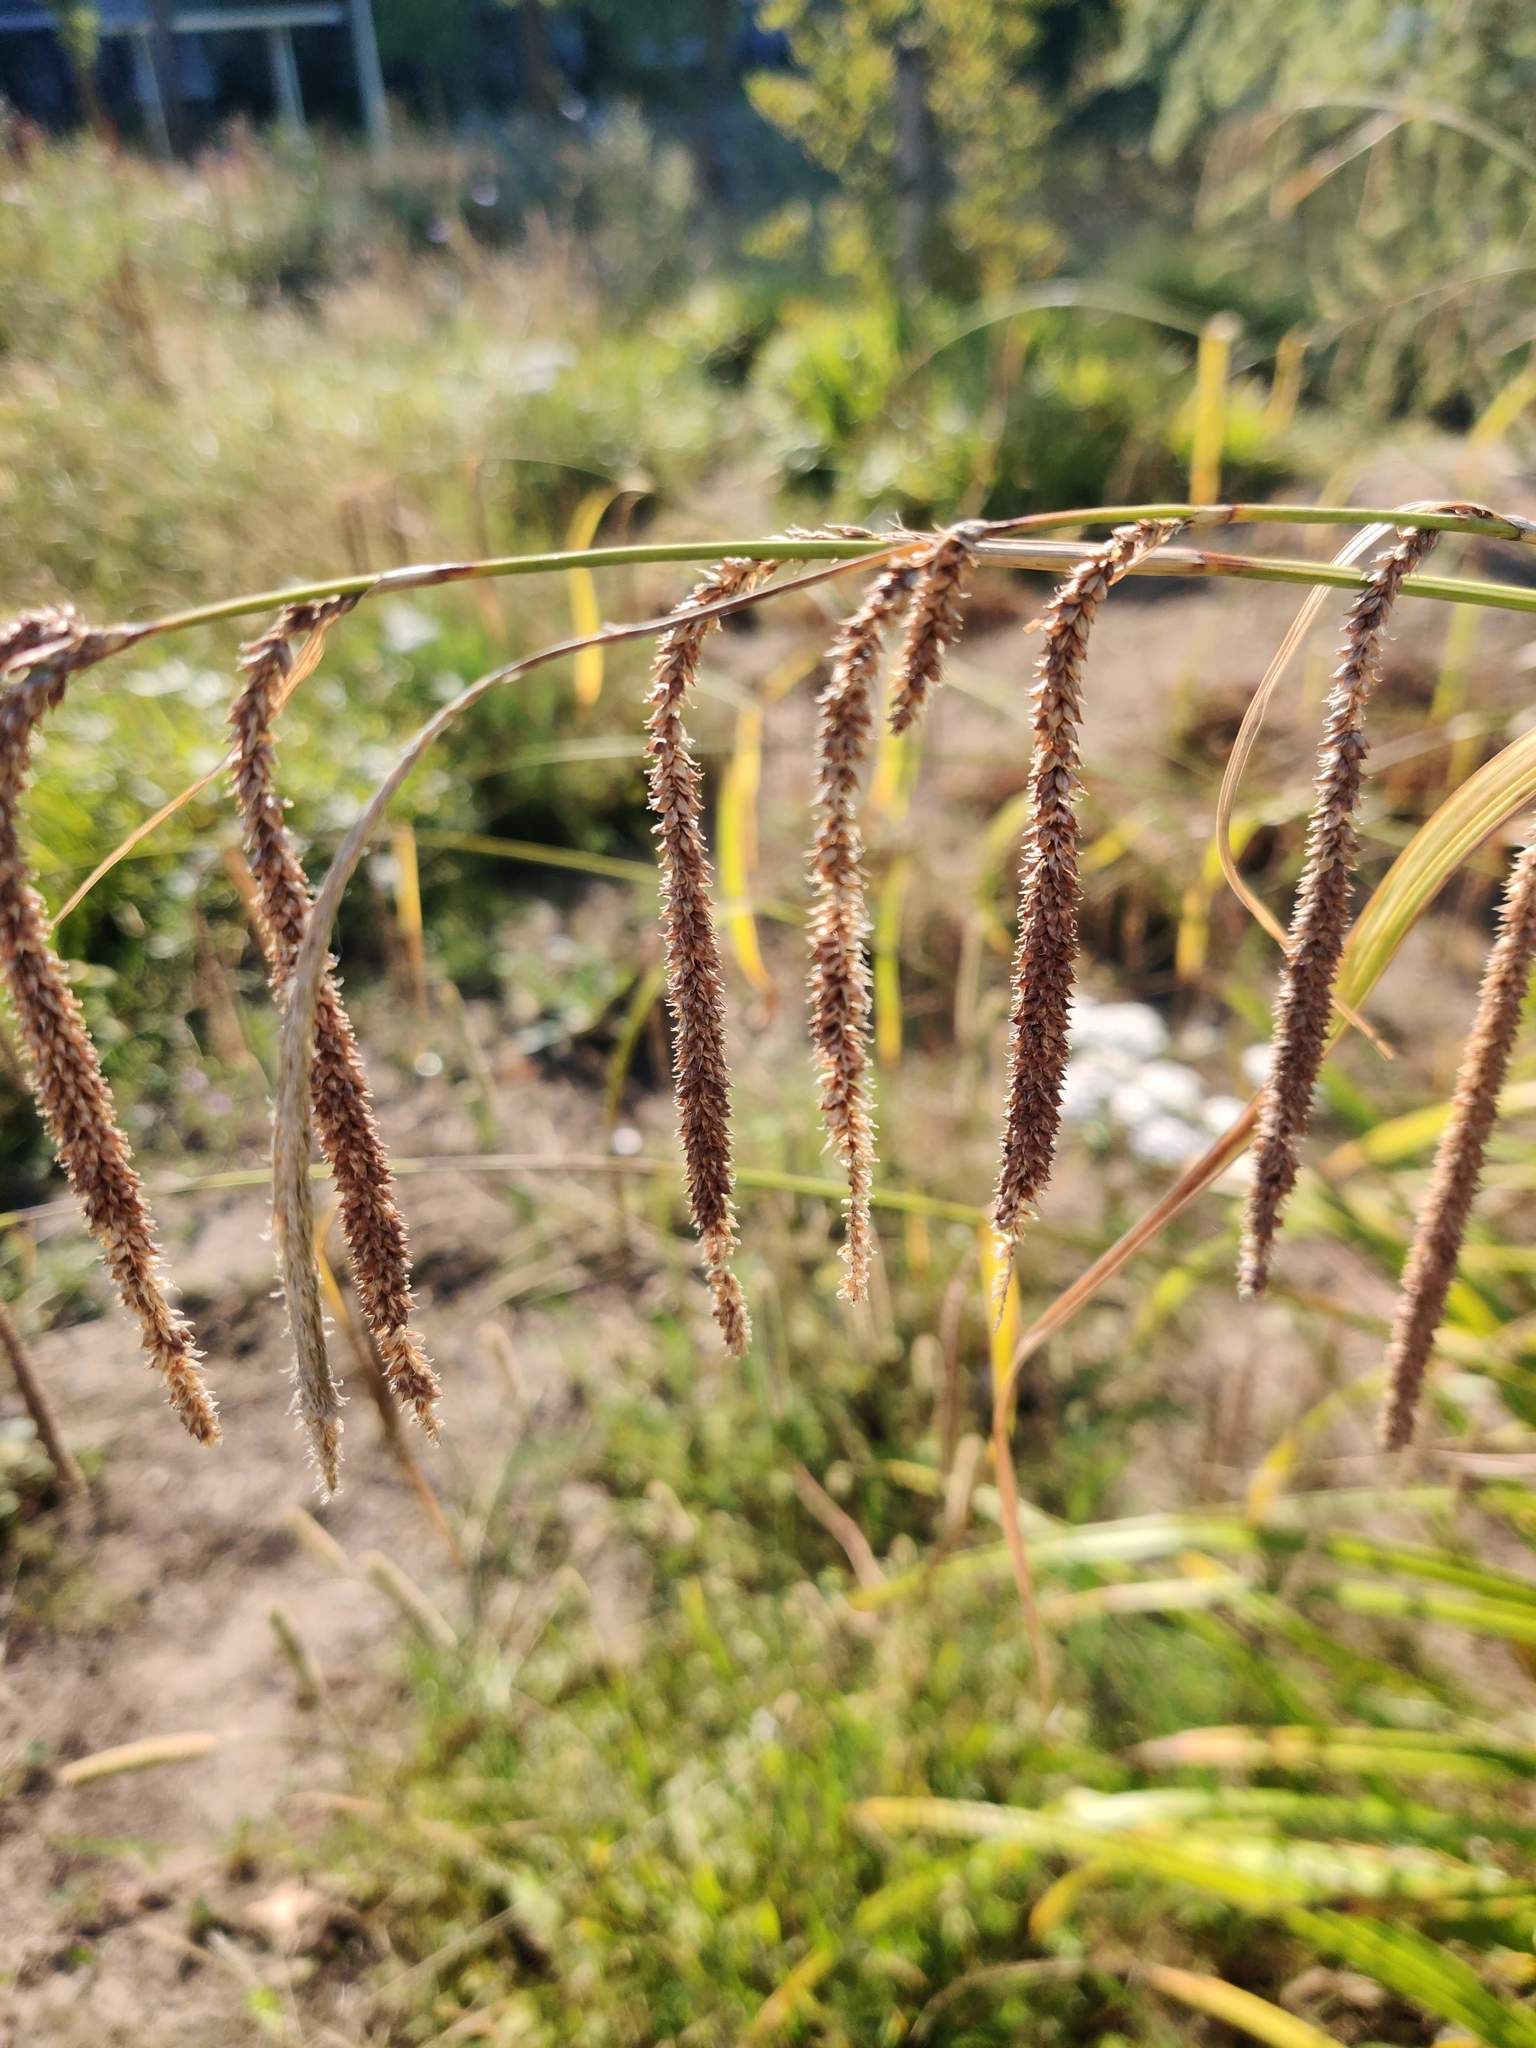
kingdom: Plantae
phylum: Tracheophyta
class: Liliopsida
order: Poales
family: Cyperaceae
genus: Carex
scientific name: Carex pendula
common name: Pendulous sedge
